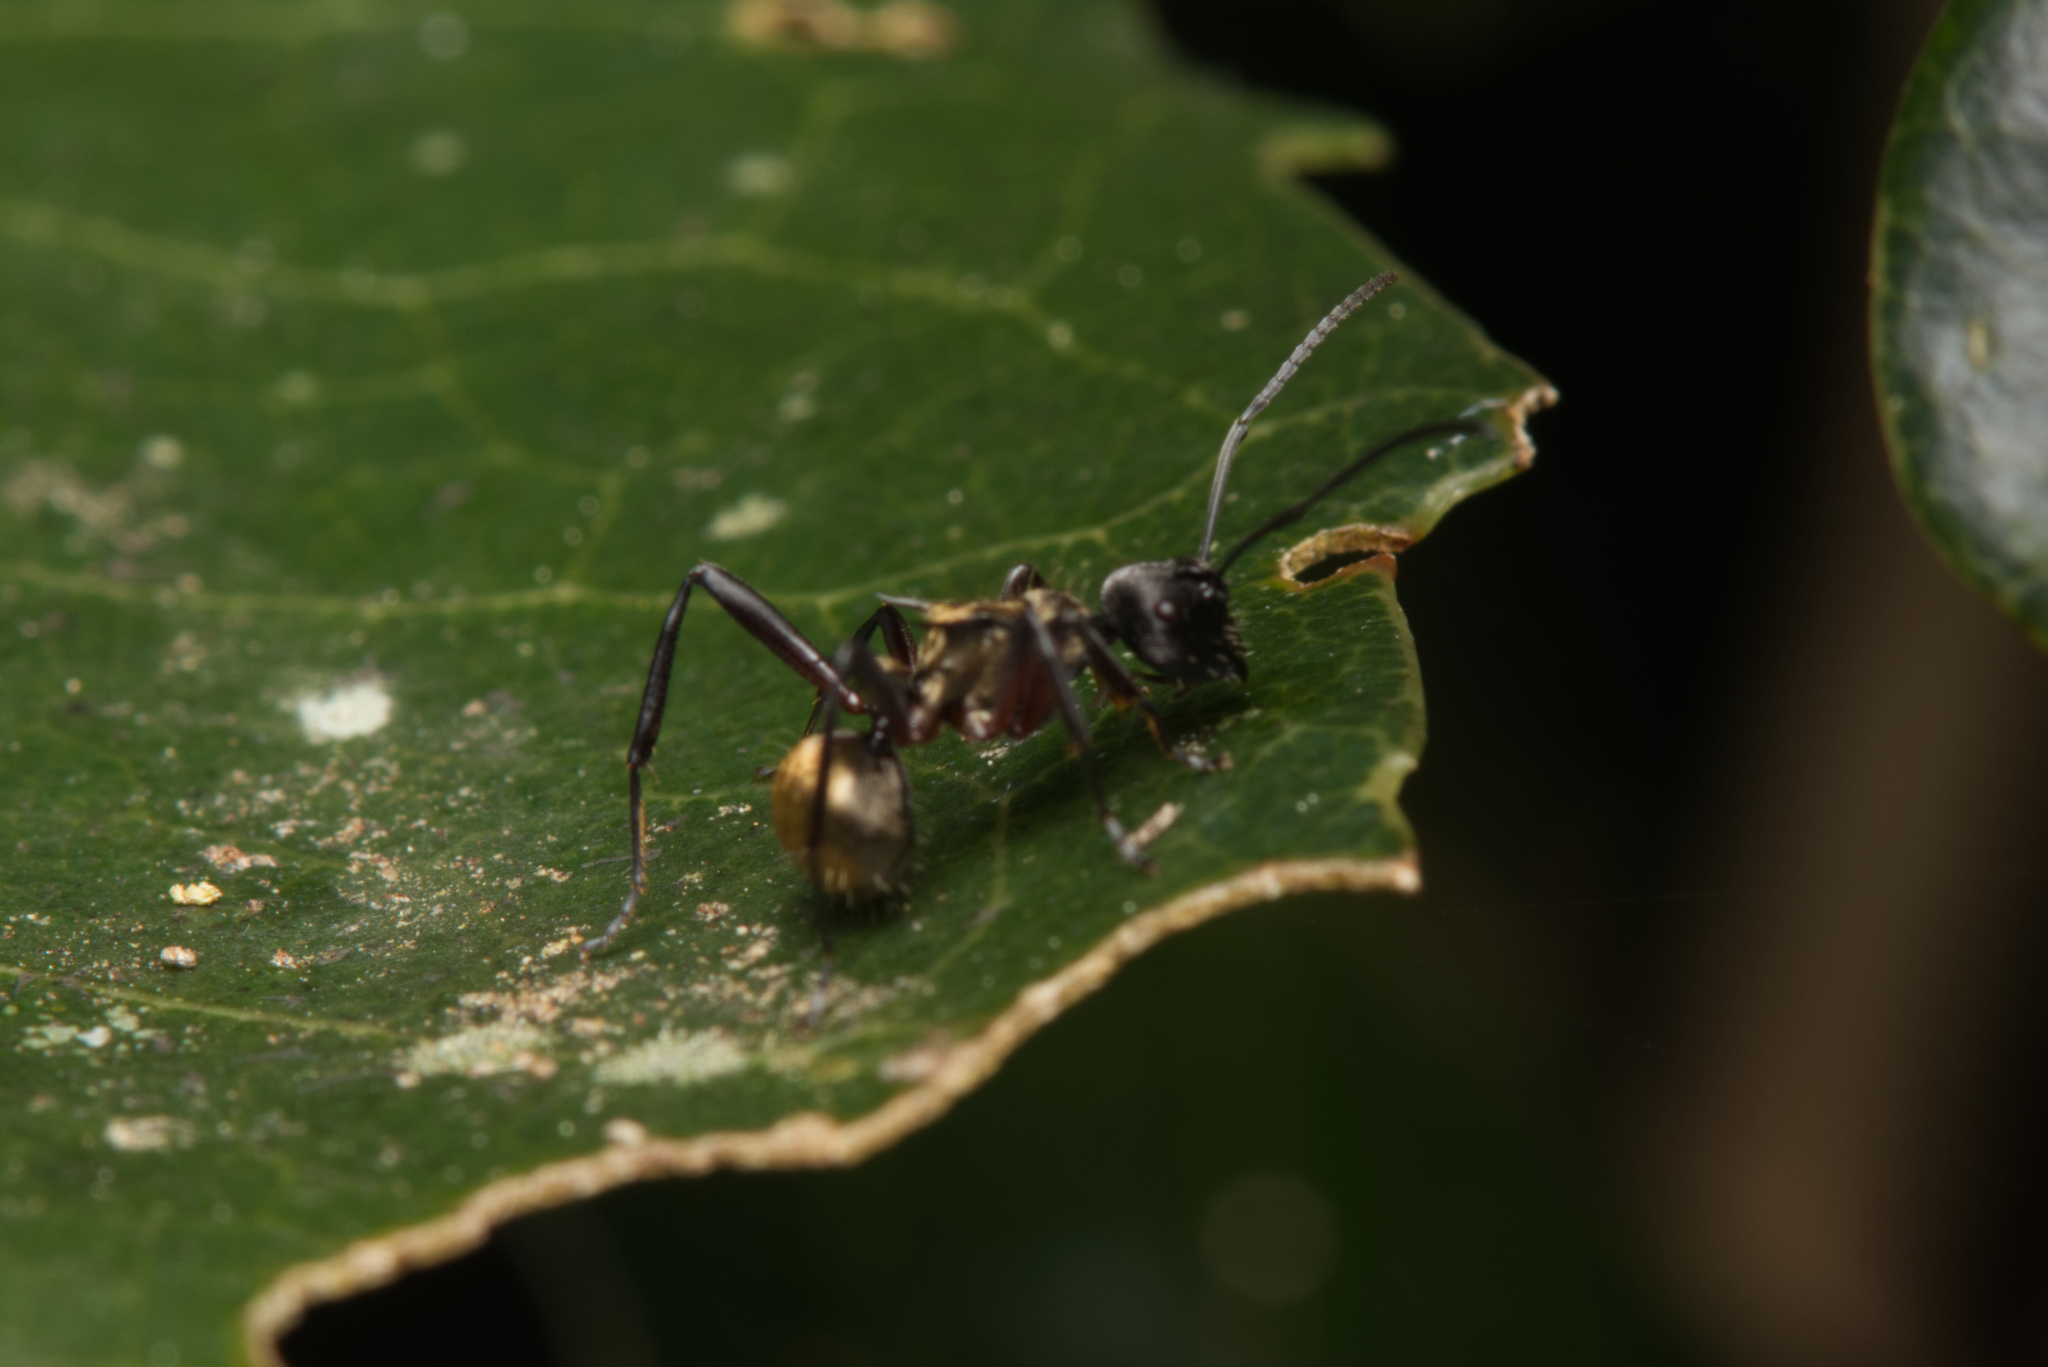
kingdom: Animalia
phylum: Arthropoda
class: Insecta
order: Hymenoptera
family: Formicidae
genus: Polyrhachis
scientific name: Polyrhachis rufifemur
